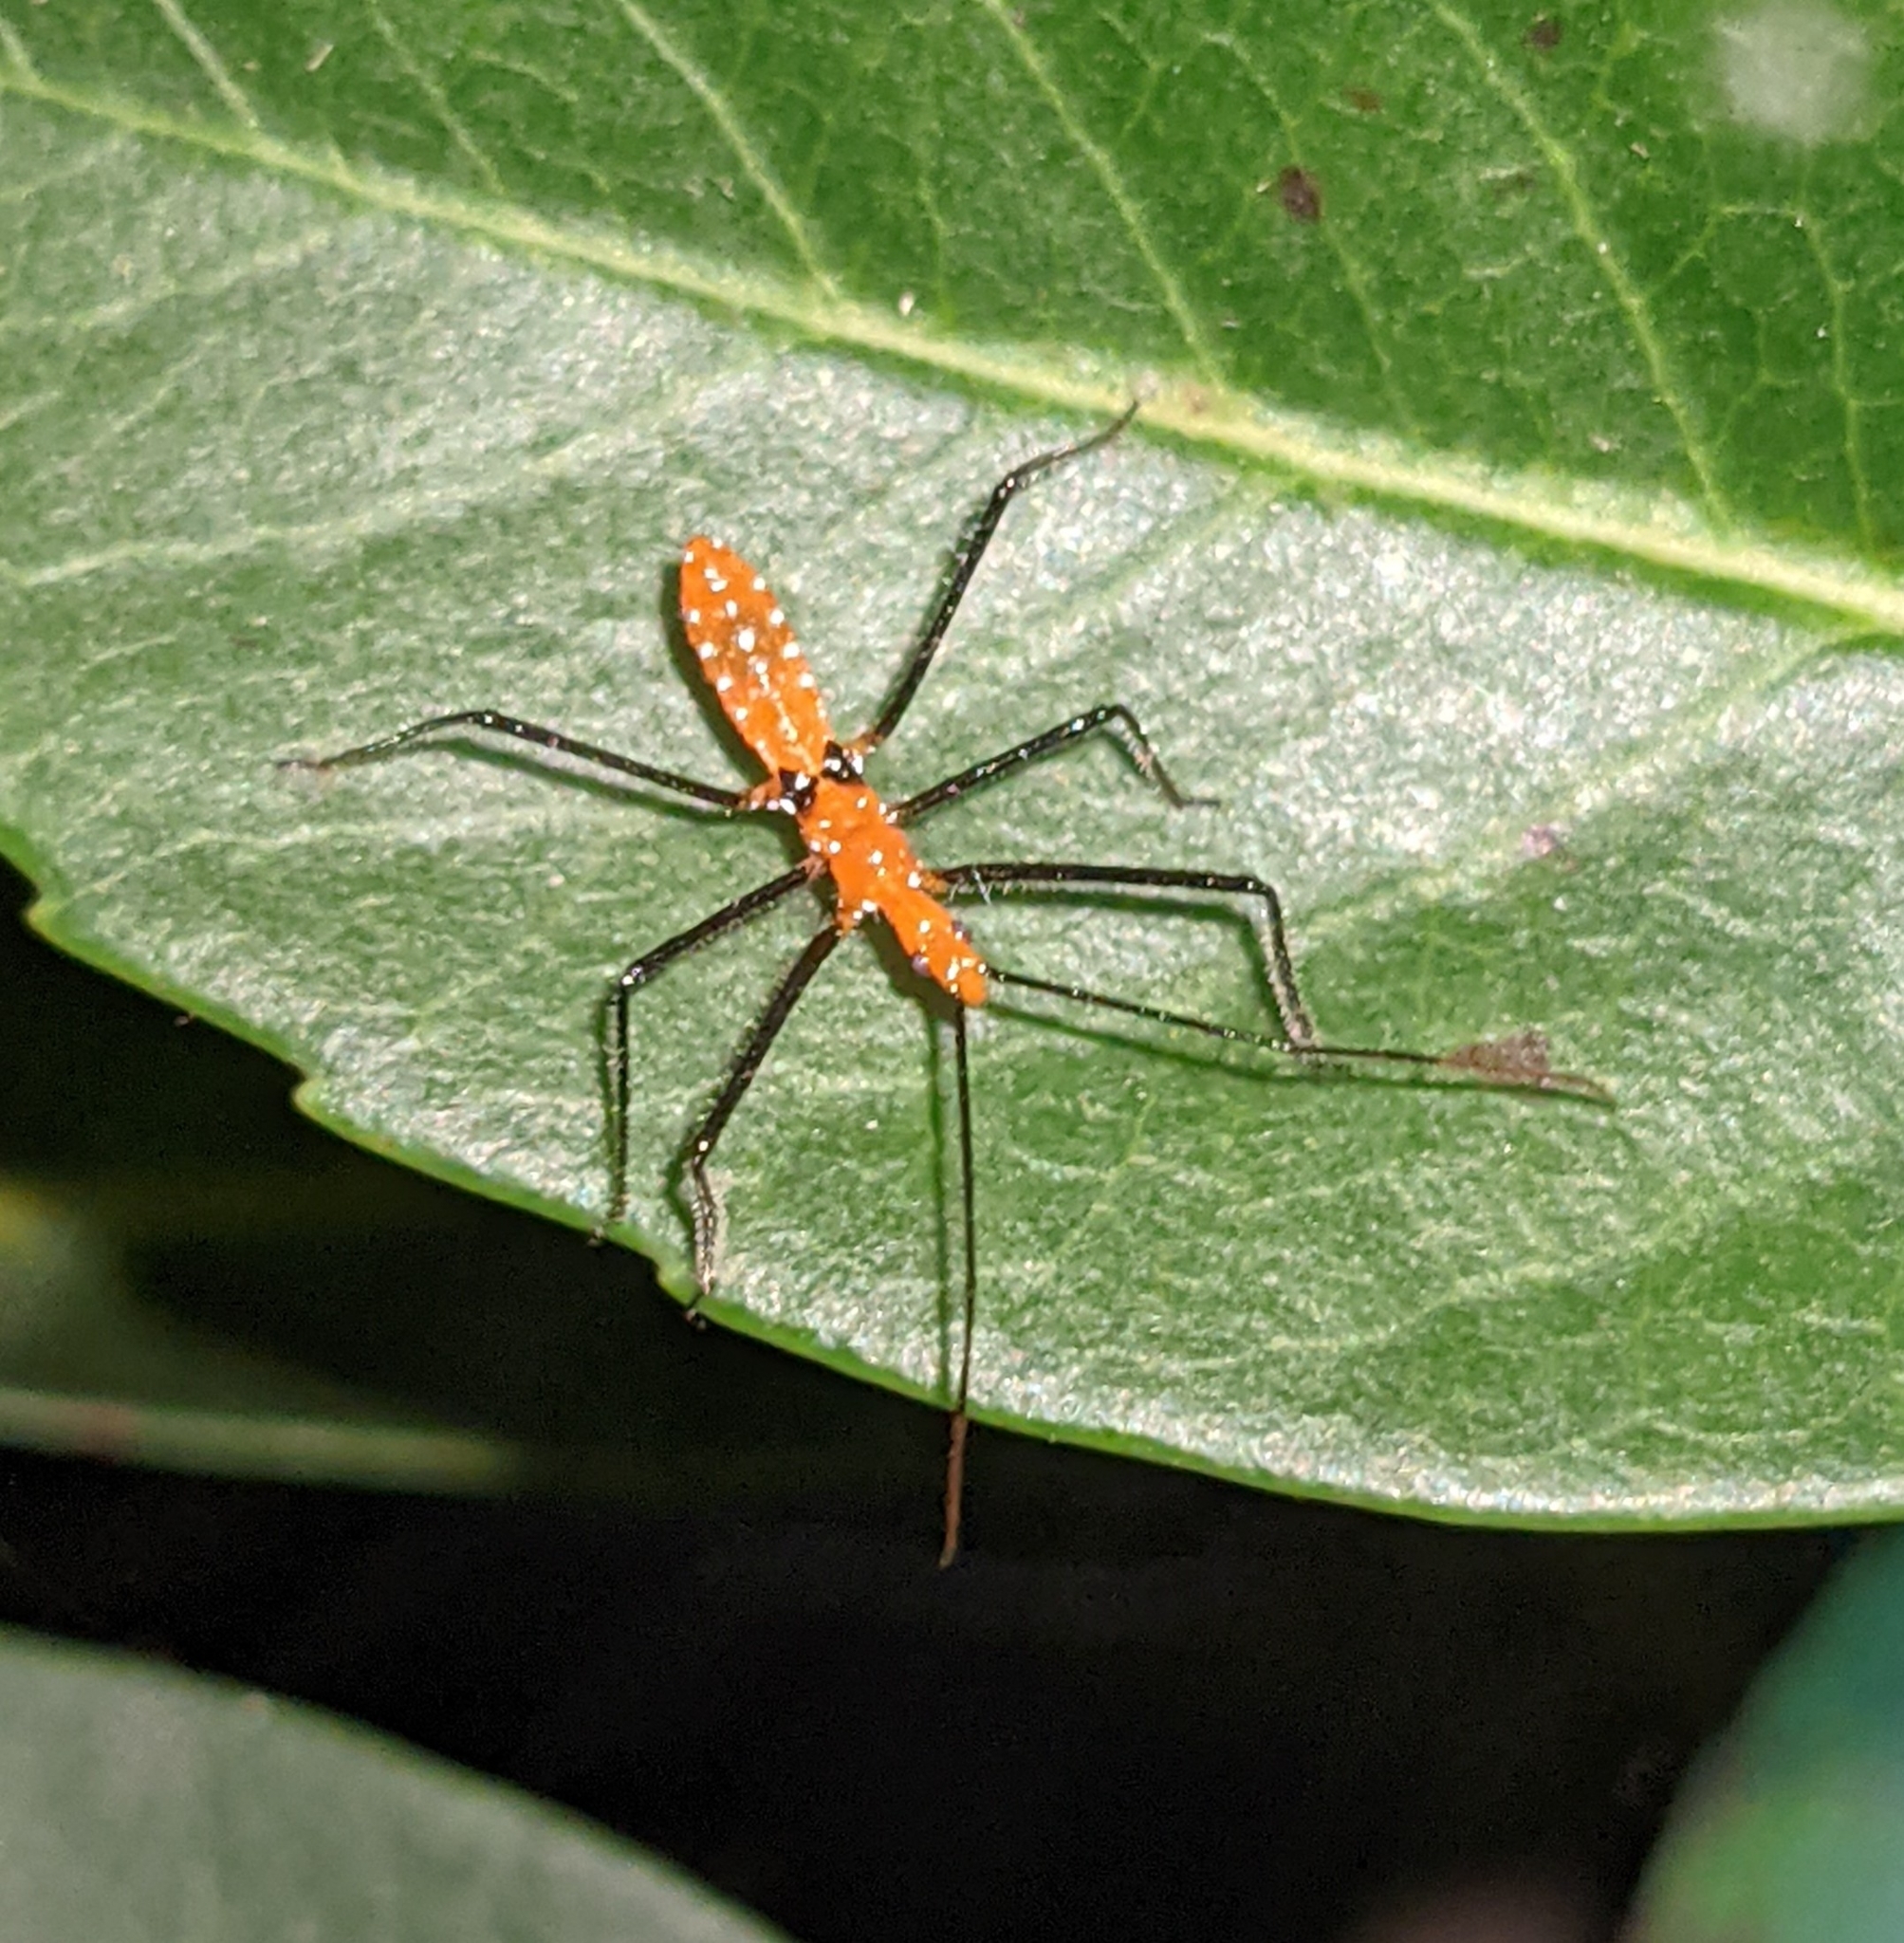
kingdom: Animalia
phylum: Arthropoda
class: Insecta
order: Hemiptera
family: Reduviidae
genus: Zelus
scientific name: Zelus longipes
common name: Milkweed assassin bug
